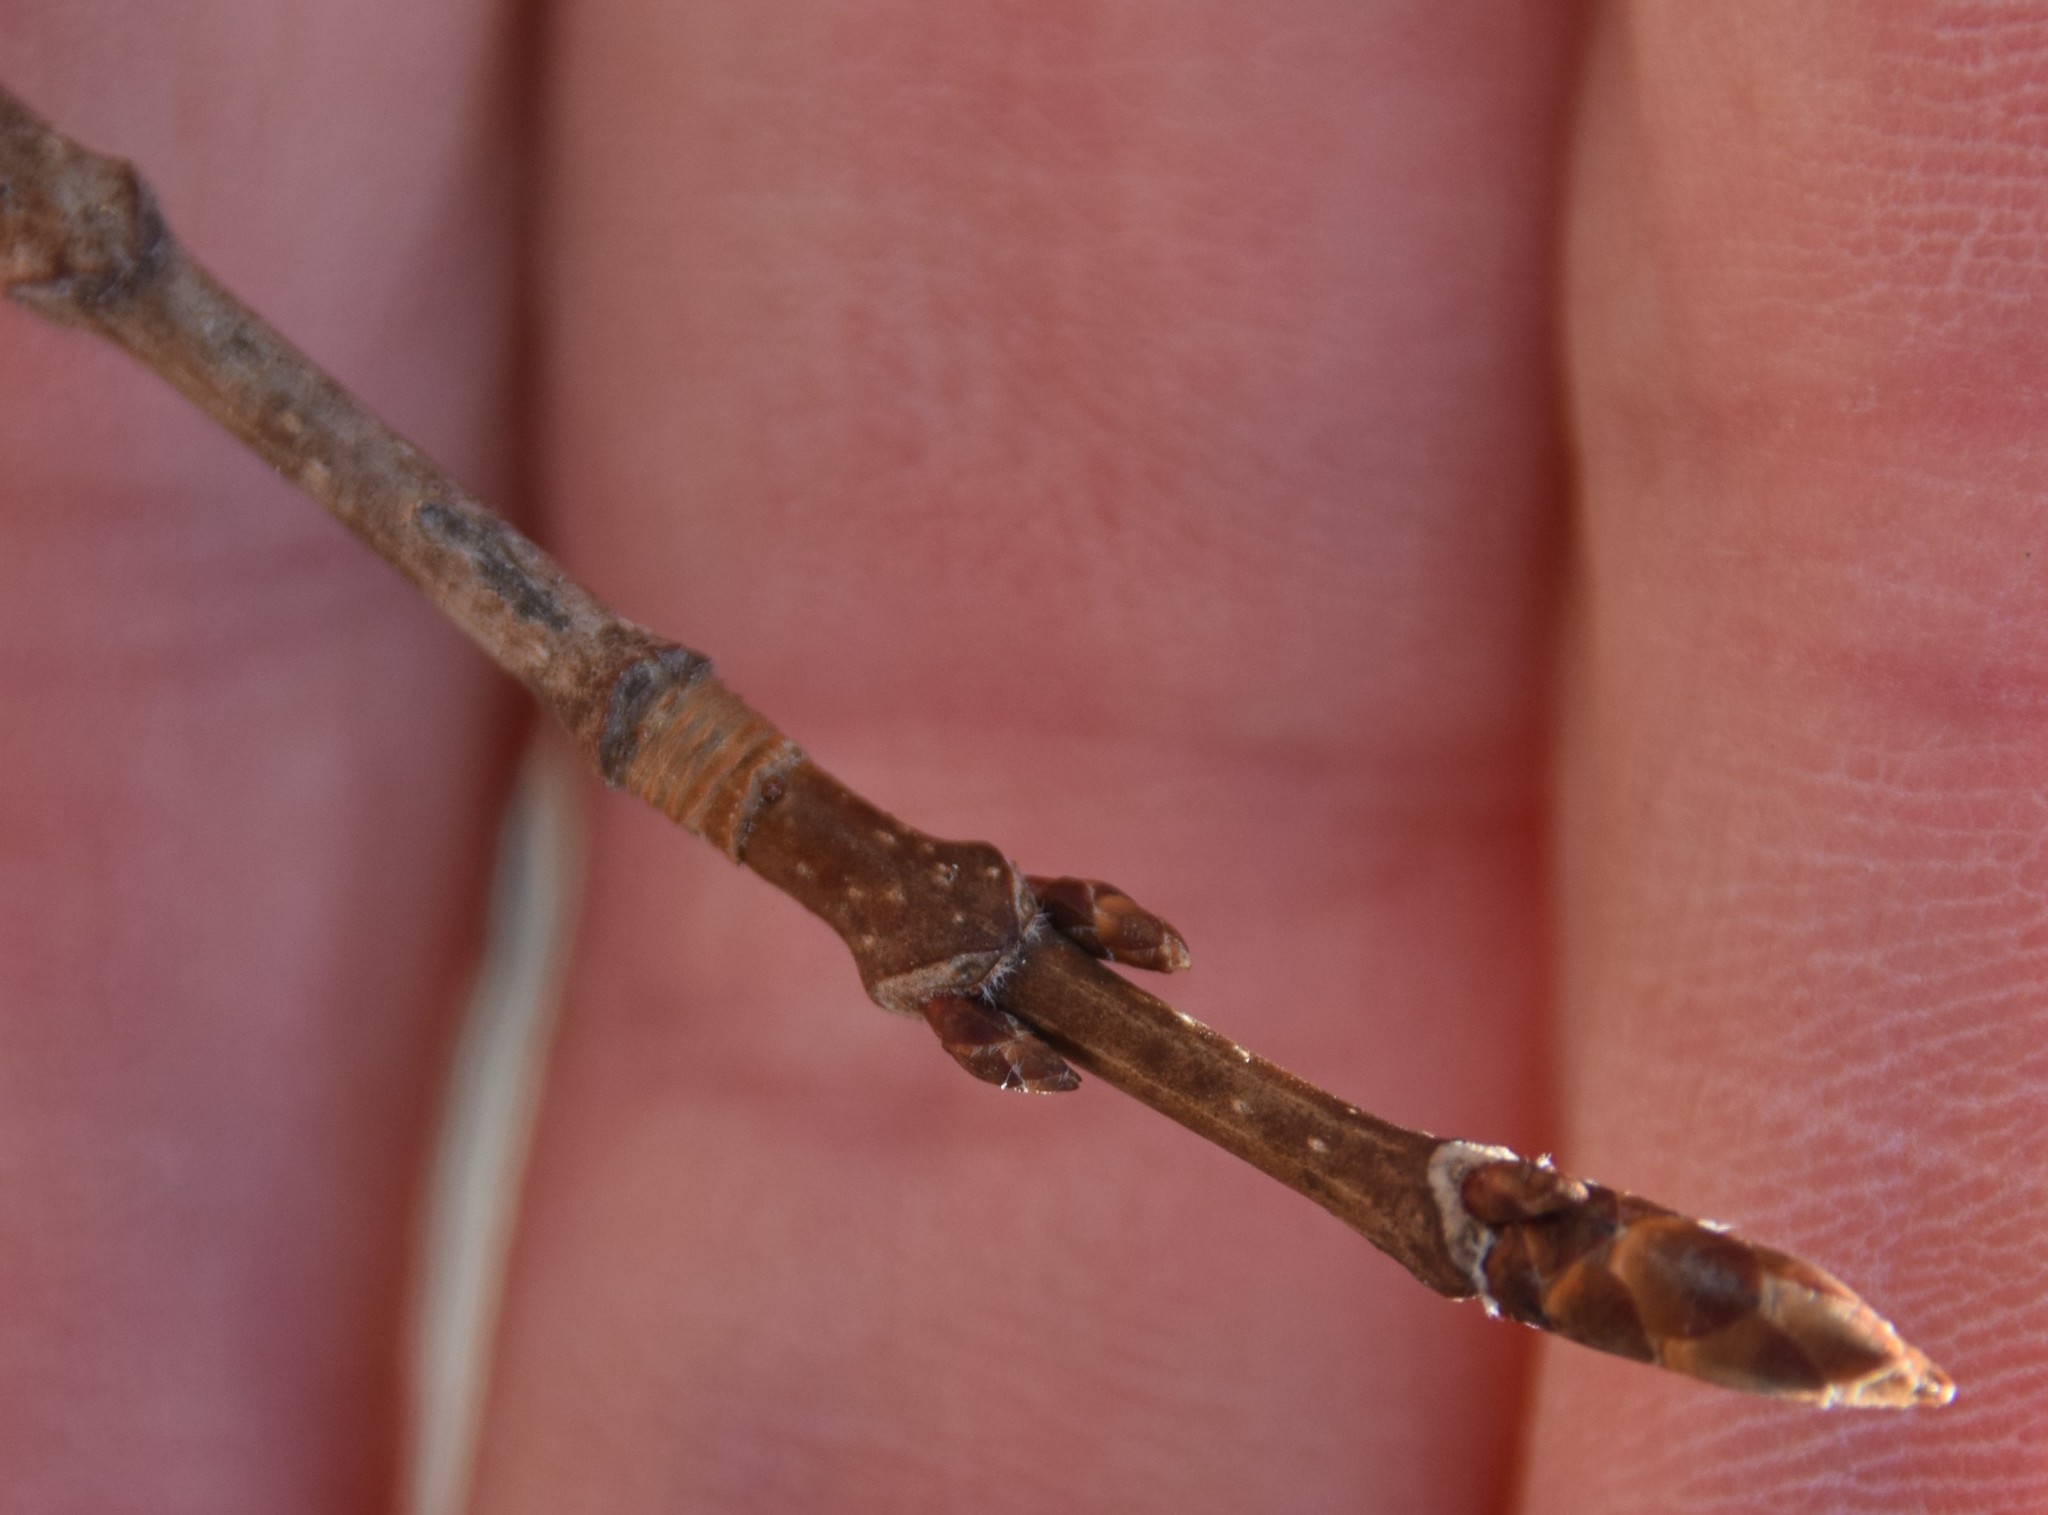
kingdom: Plantae
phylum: Tracheophyta
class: Magnoliopsida
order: Sapindales
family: Sapindaceae
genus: Acer
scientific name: Acer saccharum
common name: Sugar maple
